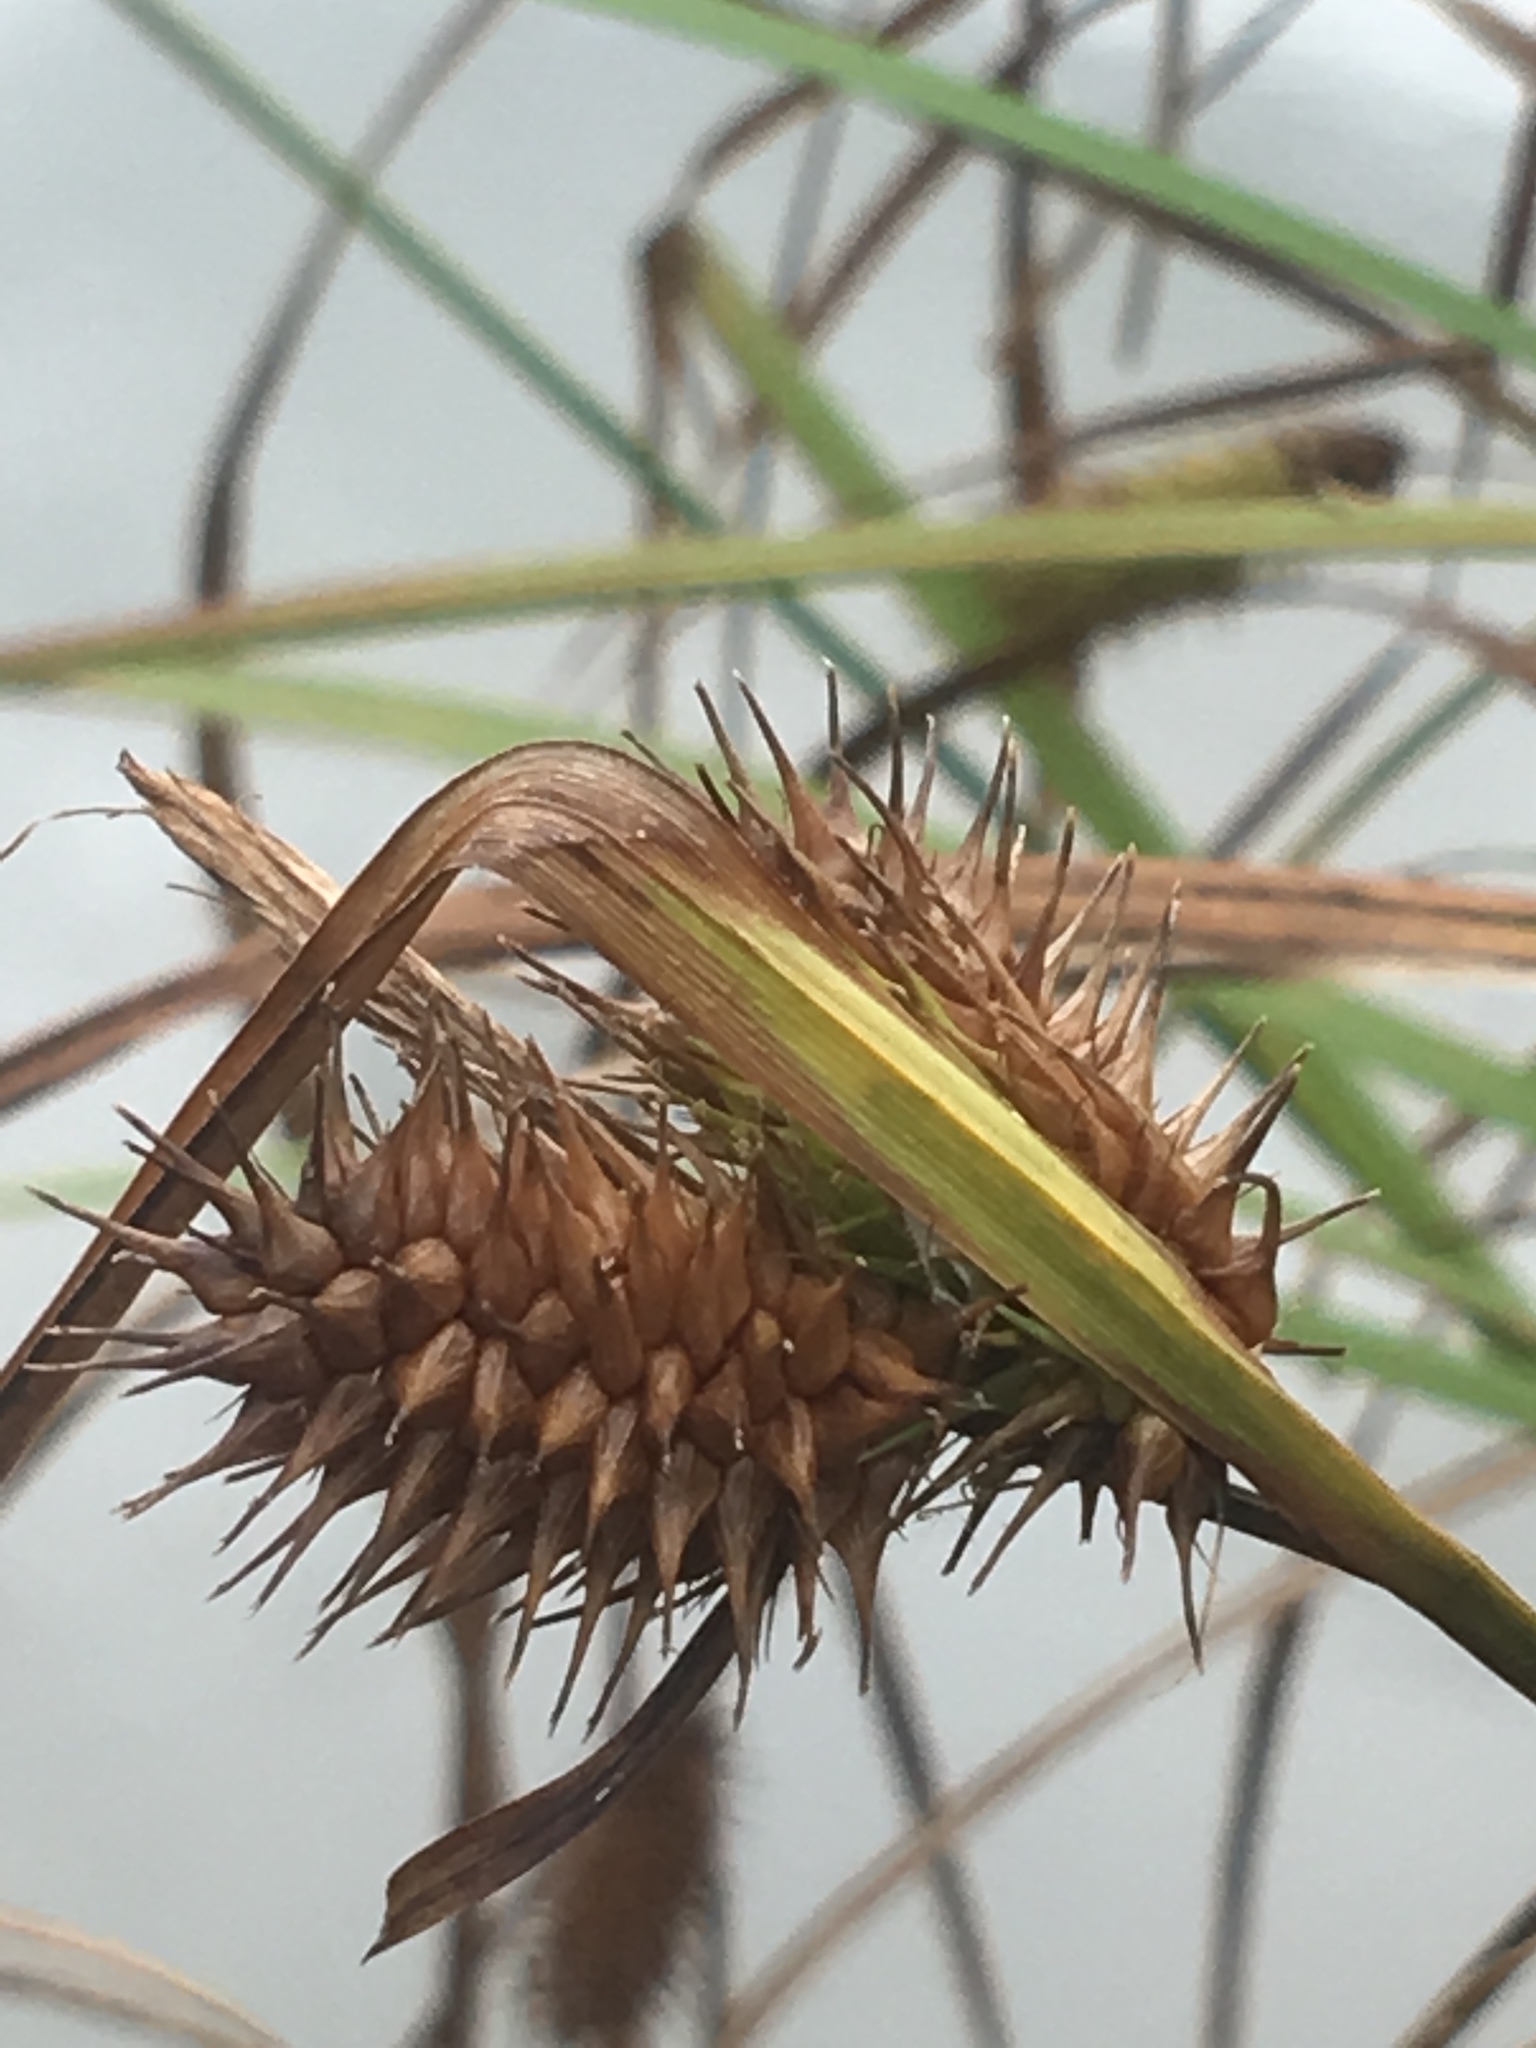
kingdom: Plantae
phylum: Tracheophyta
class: Liliopsida
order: Poales
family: Cyperaceae
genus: Carex
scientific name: Carex lupulina
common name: Hop sedge
